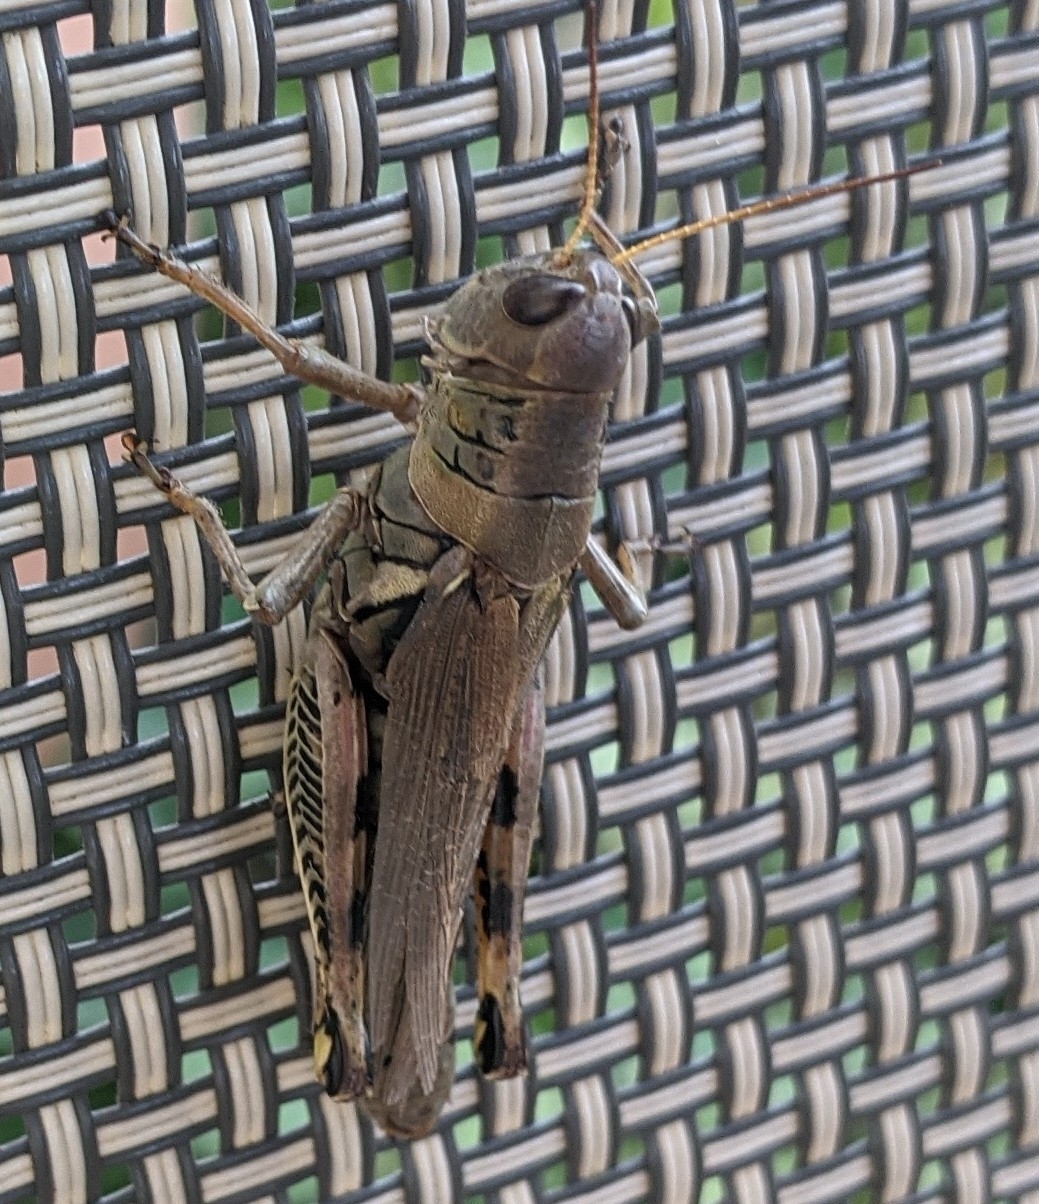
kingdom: Animalia
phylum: Arthropoda
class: Insecta
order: Orthoptera
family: Acrididae
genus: Melanoplus
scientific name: Melanoplus differentialis
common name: Differential grasshopper
